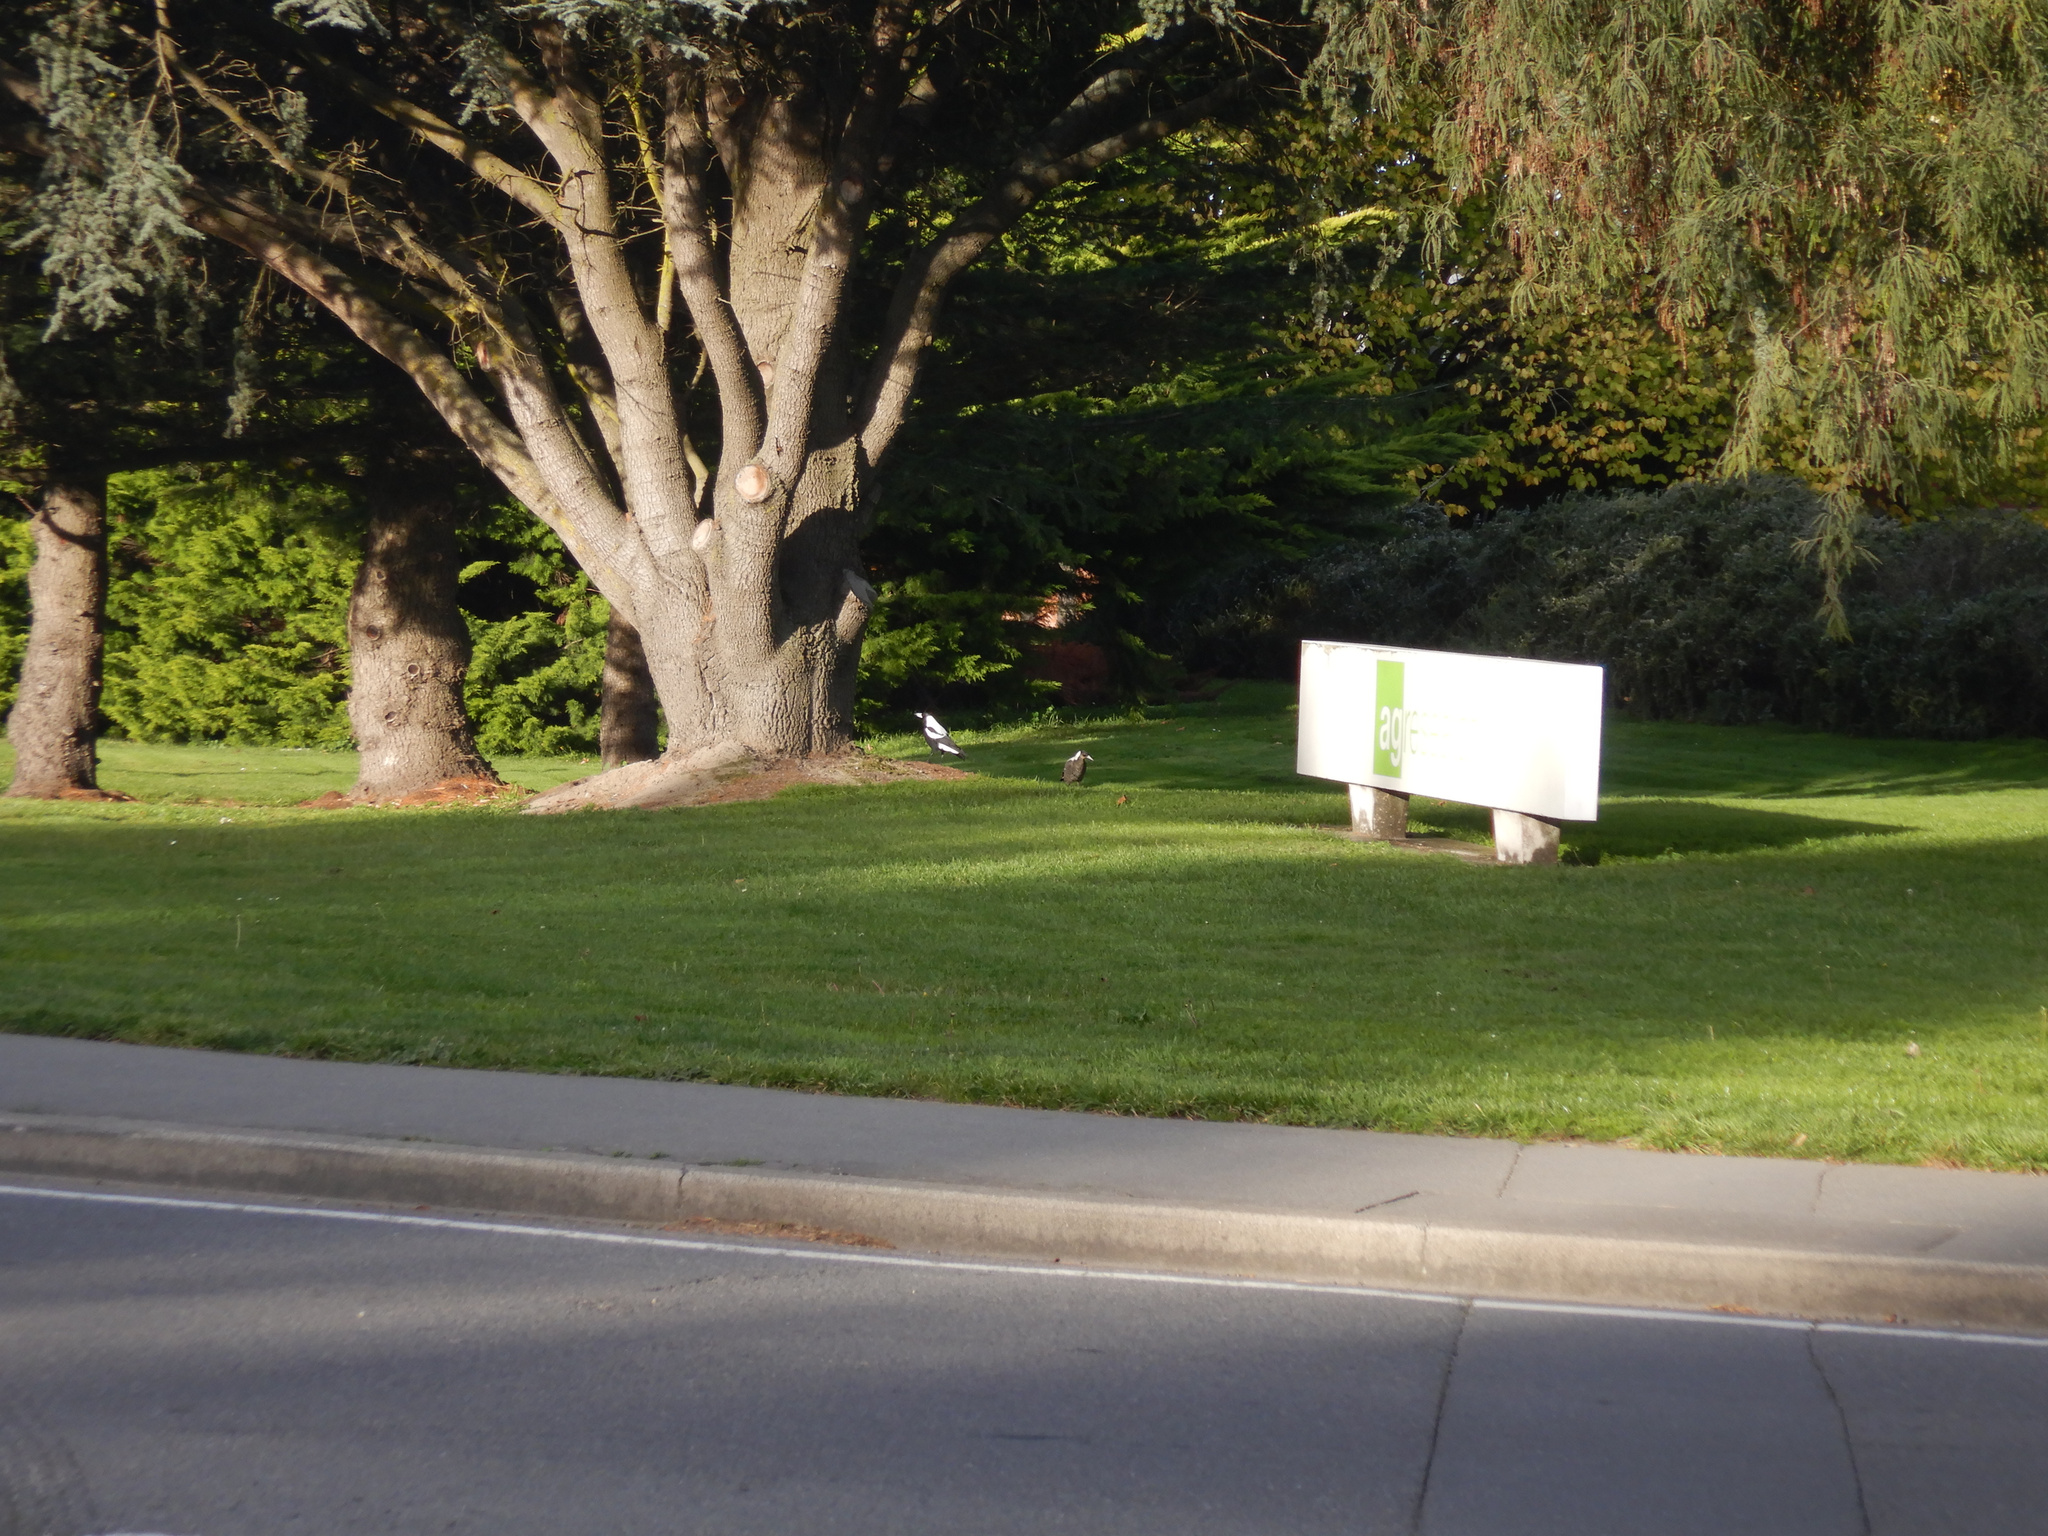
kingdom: Animalia
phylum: Chordata
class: Aves
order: Passeriformes
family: Cracticidae
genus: Gymnorhina
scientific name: Gymnorhina tibicen
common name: Australian magpie
